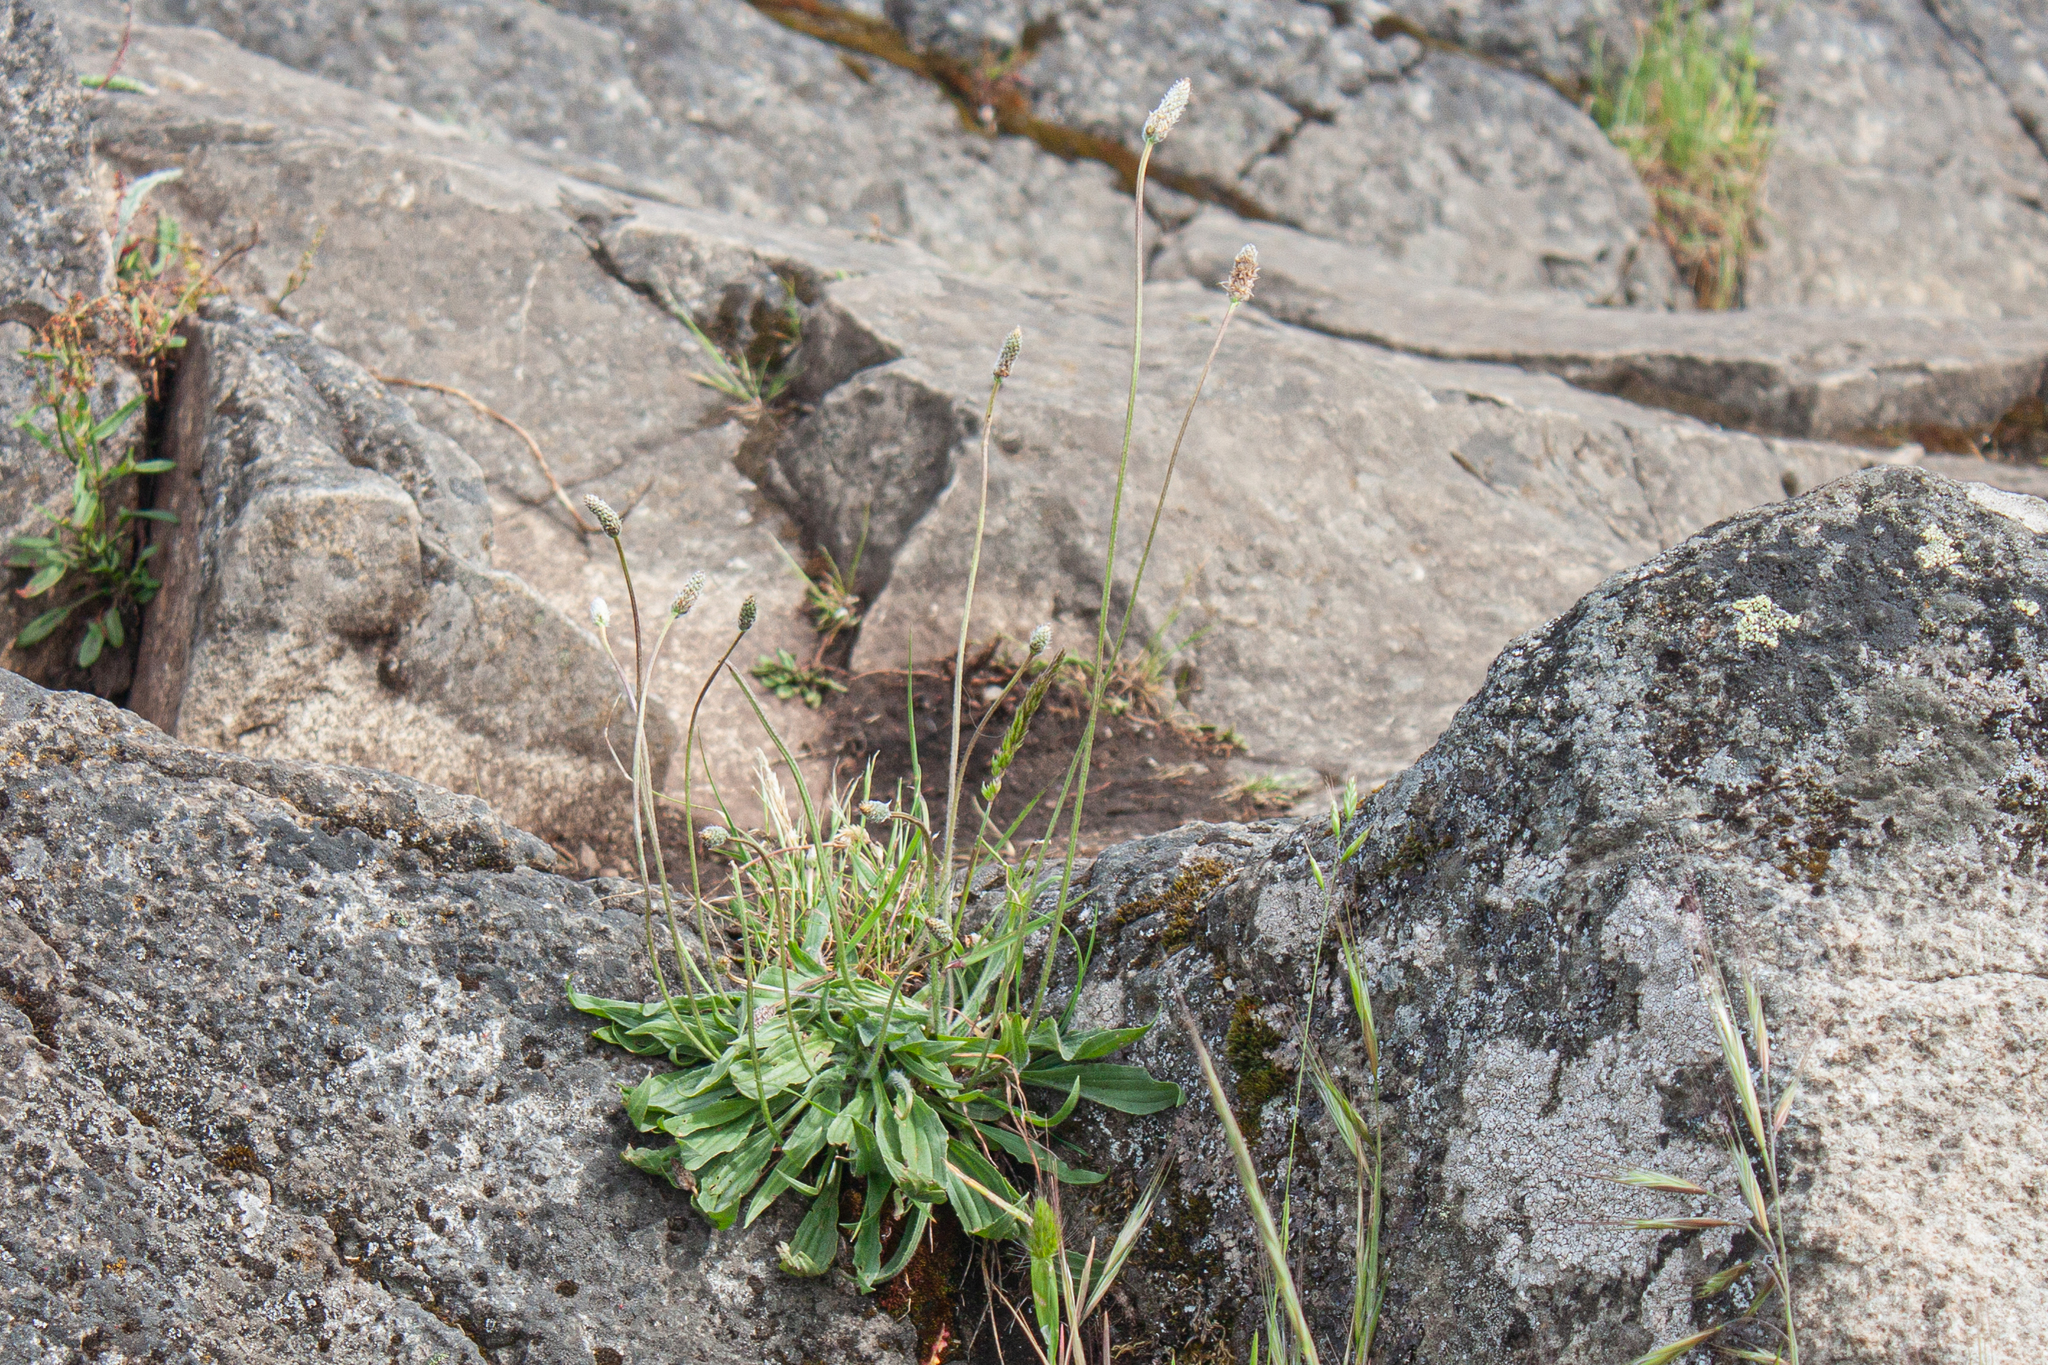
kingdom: Plantae
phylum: Tracheophyta
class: Magnoliopsida
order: Lamiales
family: Plantaginaceae
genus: Plantago
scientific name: Plantago lanceolata
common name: Ribwort plantain
